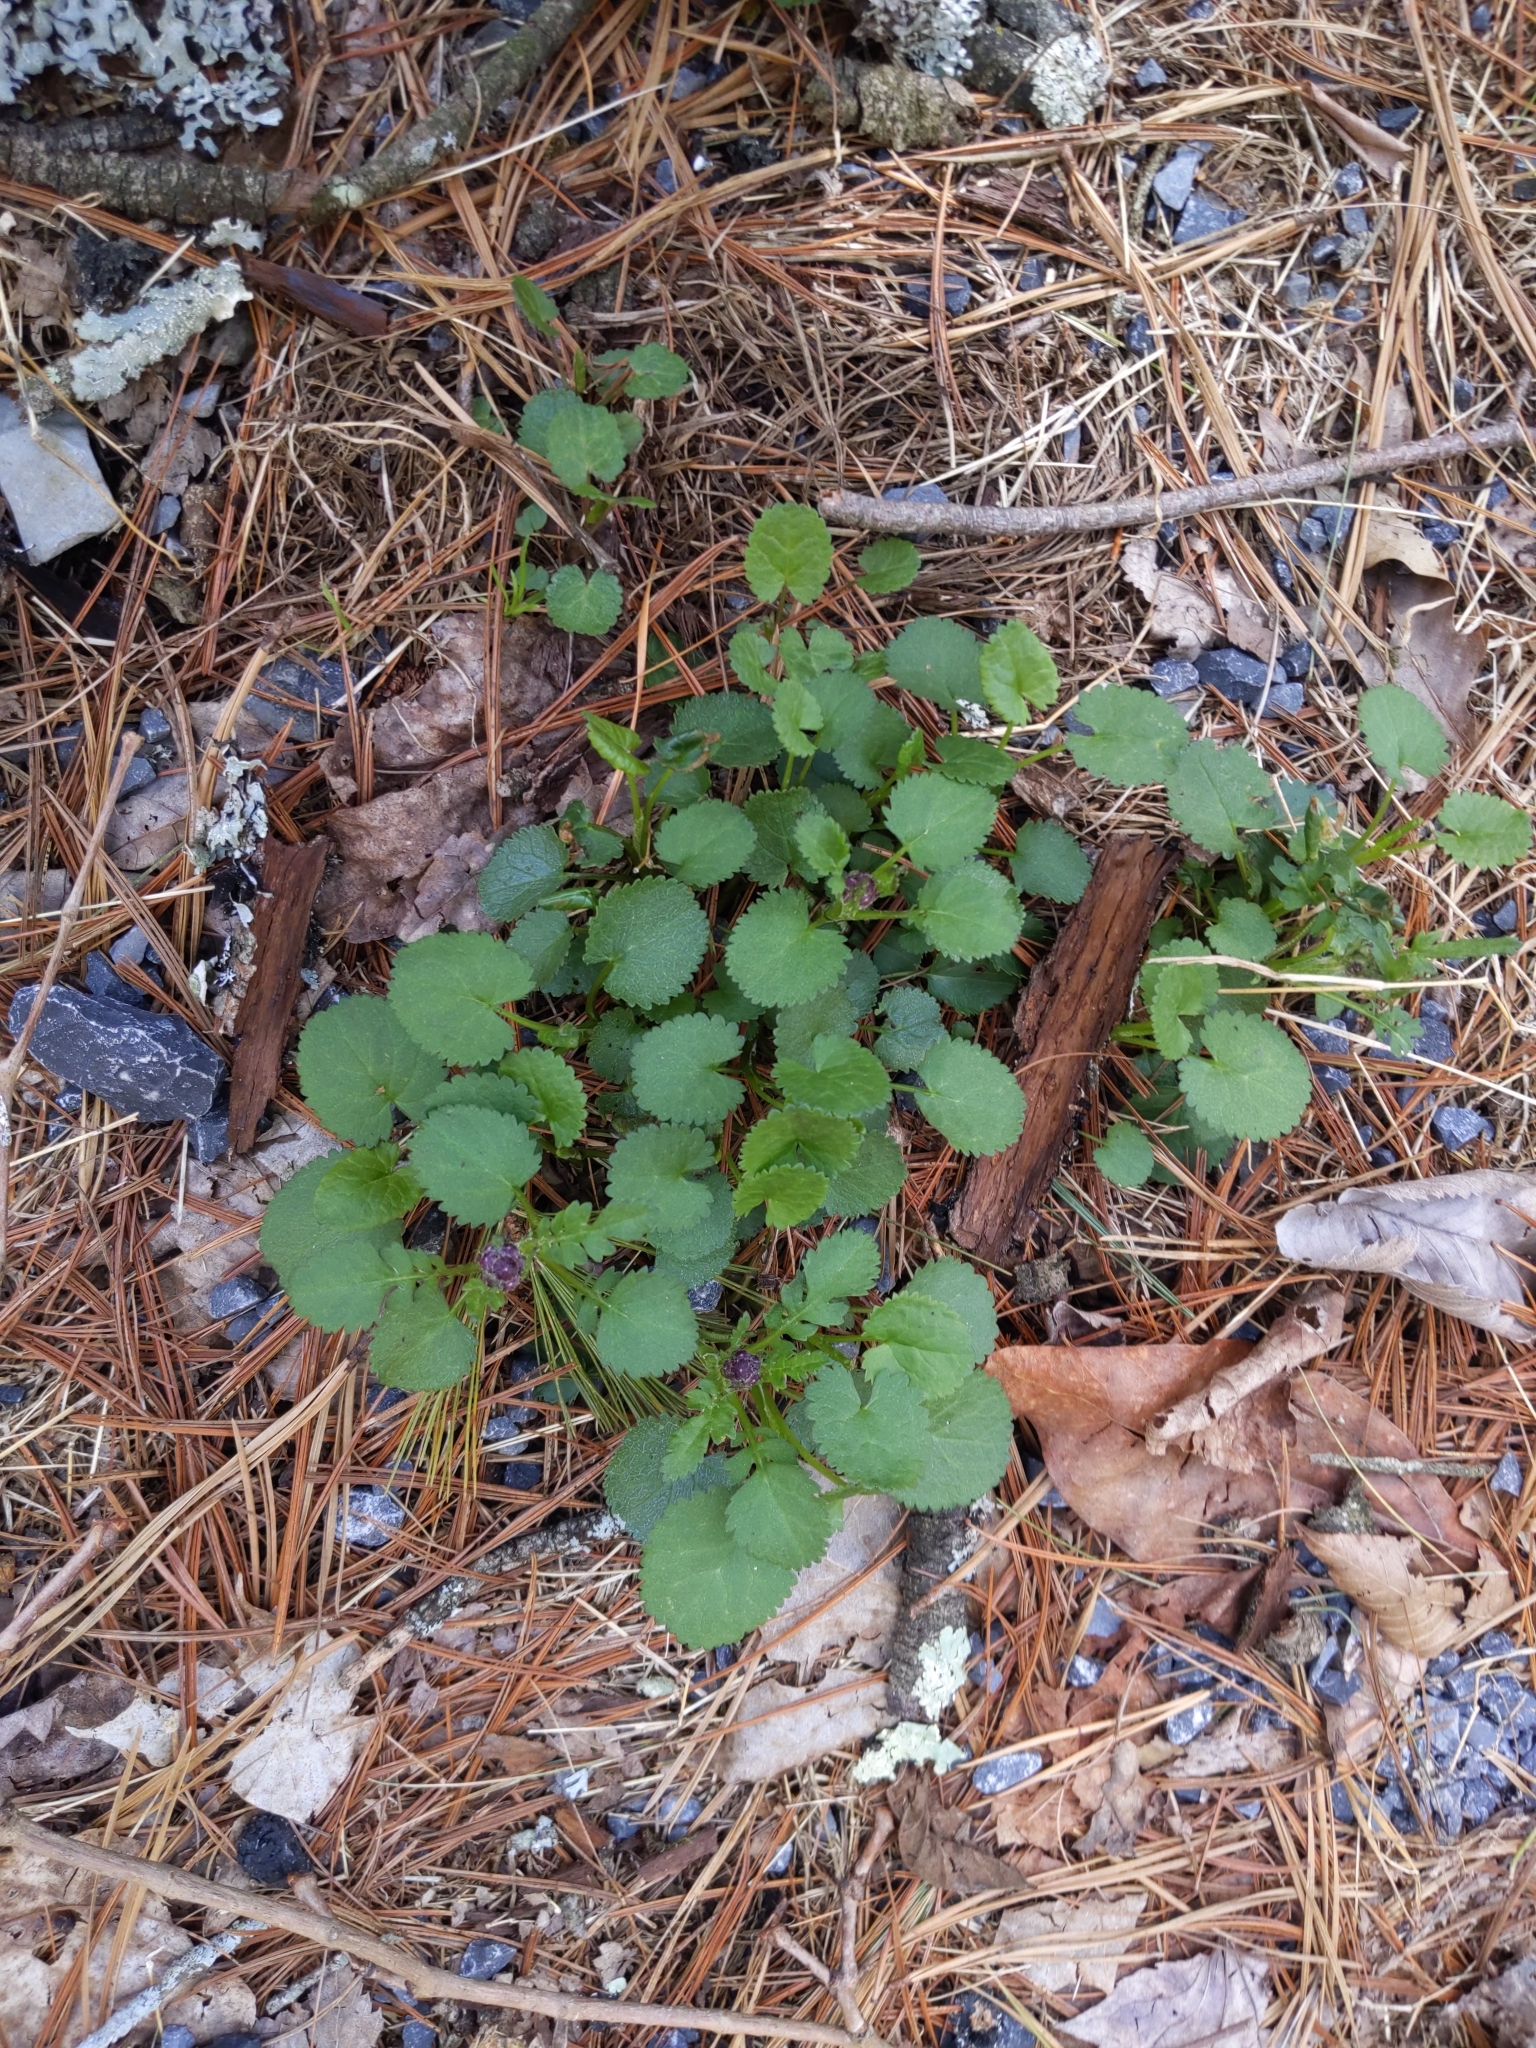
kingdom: Plantae
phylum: Tracheophyta
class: Magnoliopsida
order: Asterales
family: Asteraceae
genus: Packera
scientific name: Packera aurea
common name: Golden groundsel
